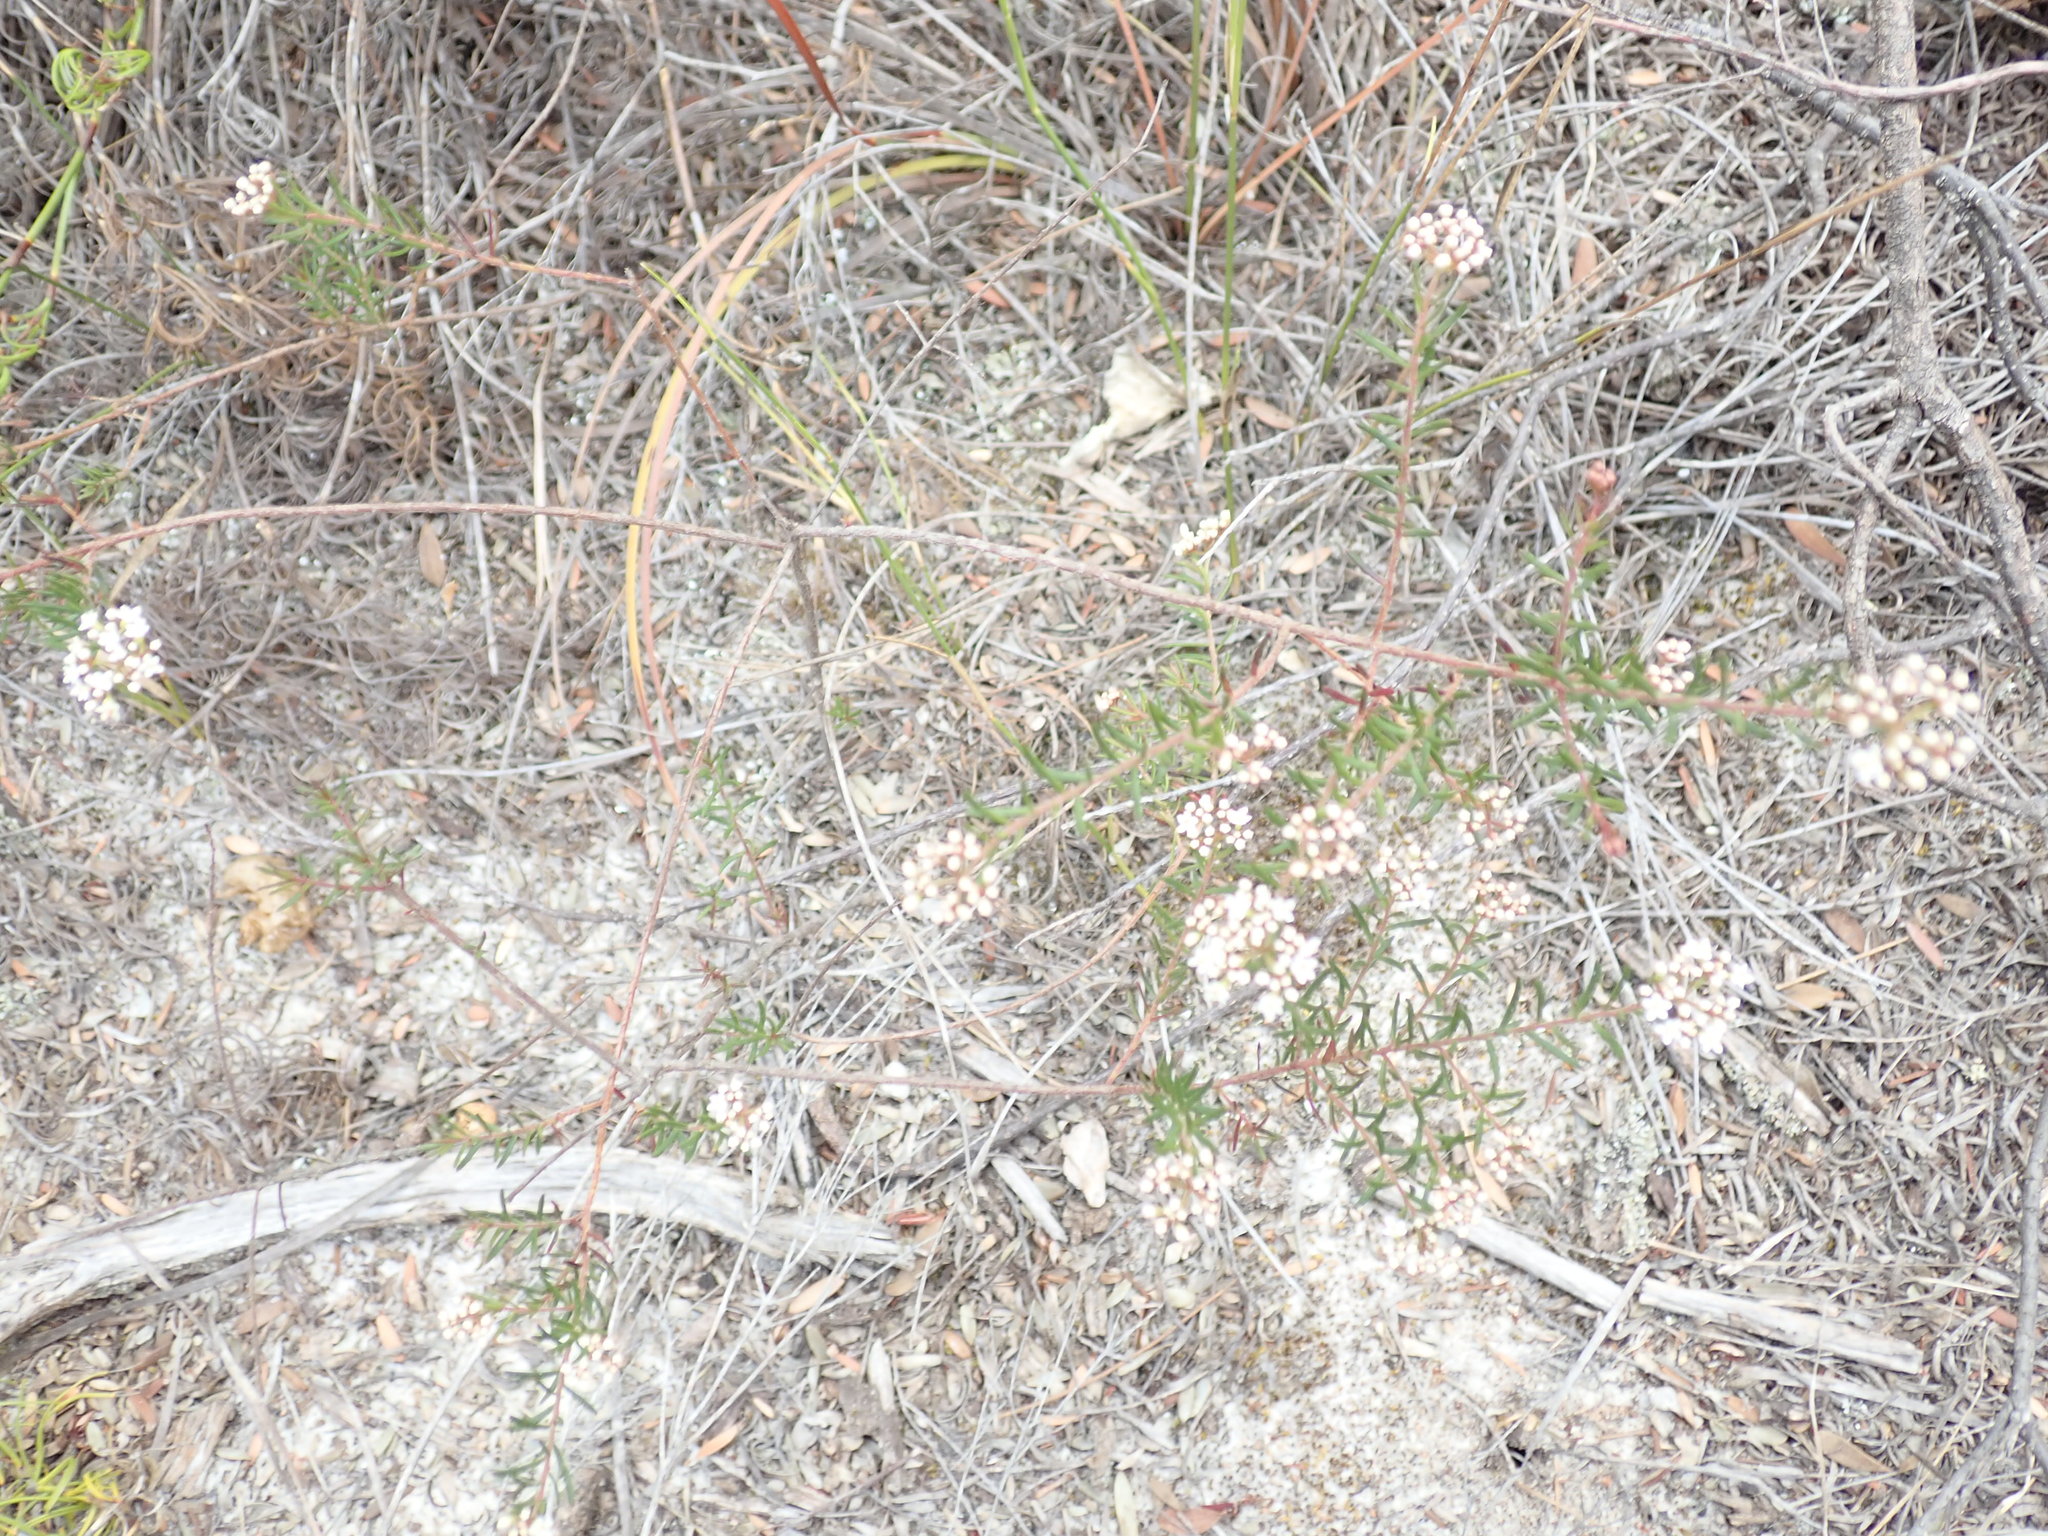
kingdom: Plantae
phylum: Tracheophyta
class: Magnoliopsida
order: Apiales
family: Apiaceae
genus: Platysace
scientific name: Platysace ericoides
